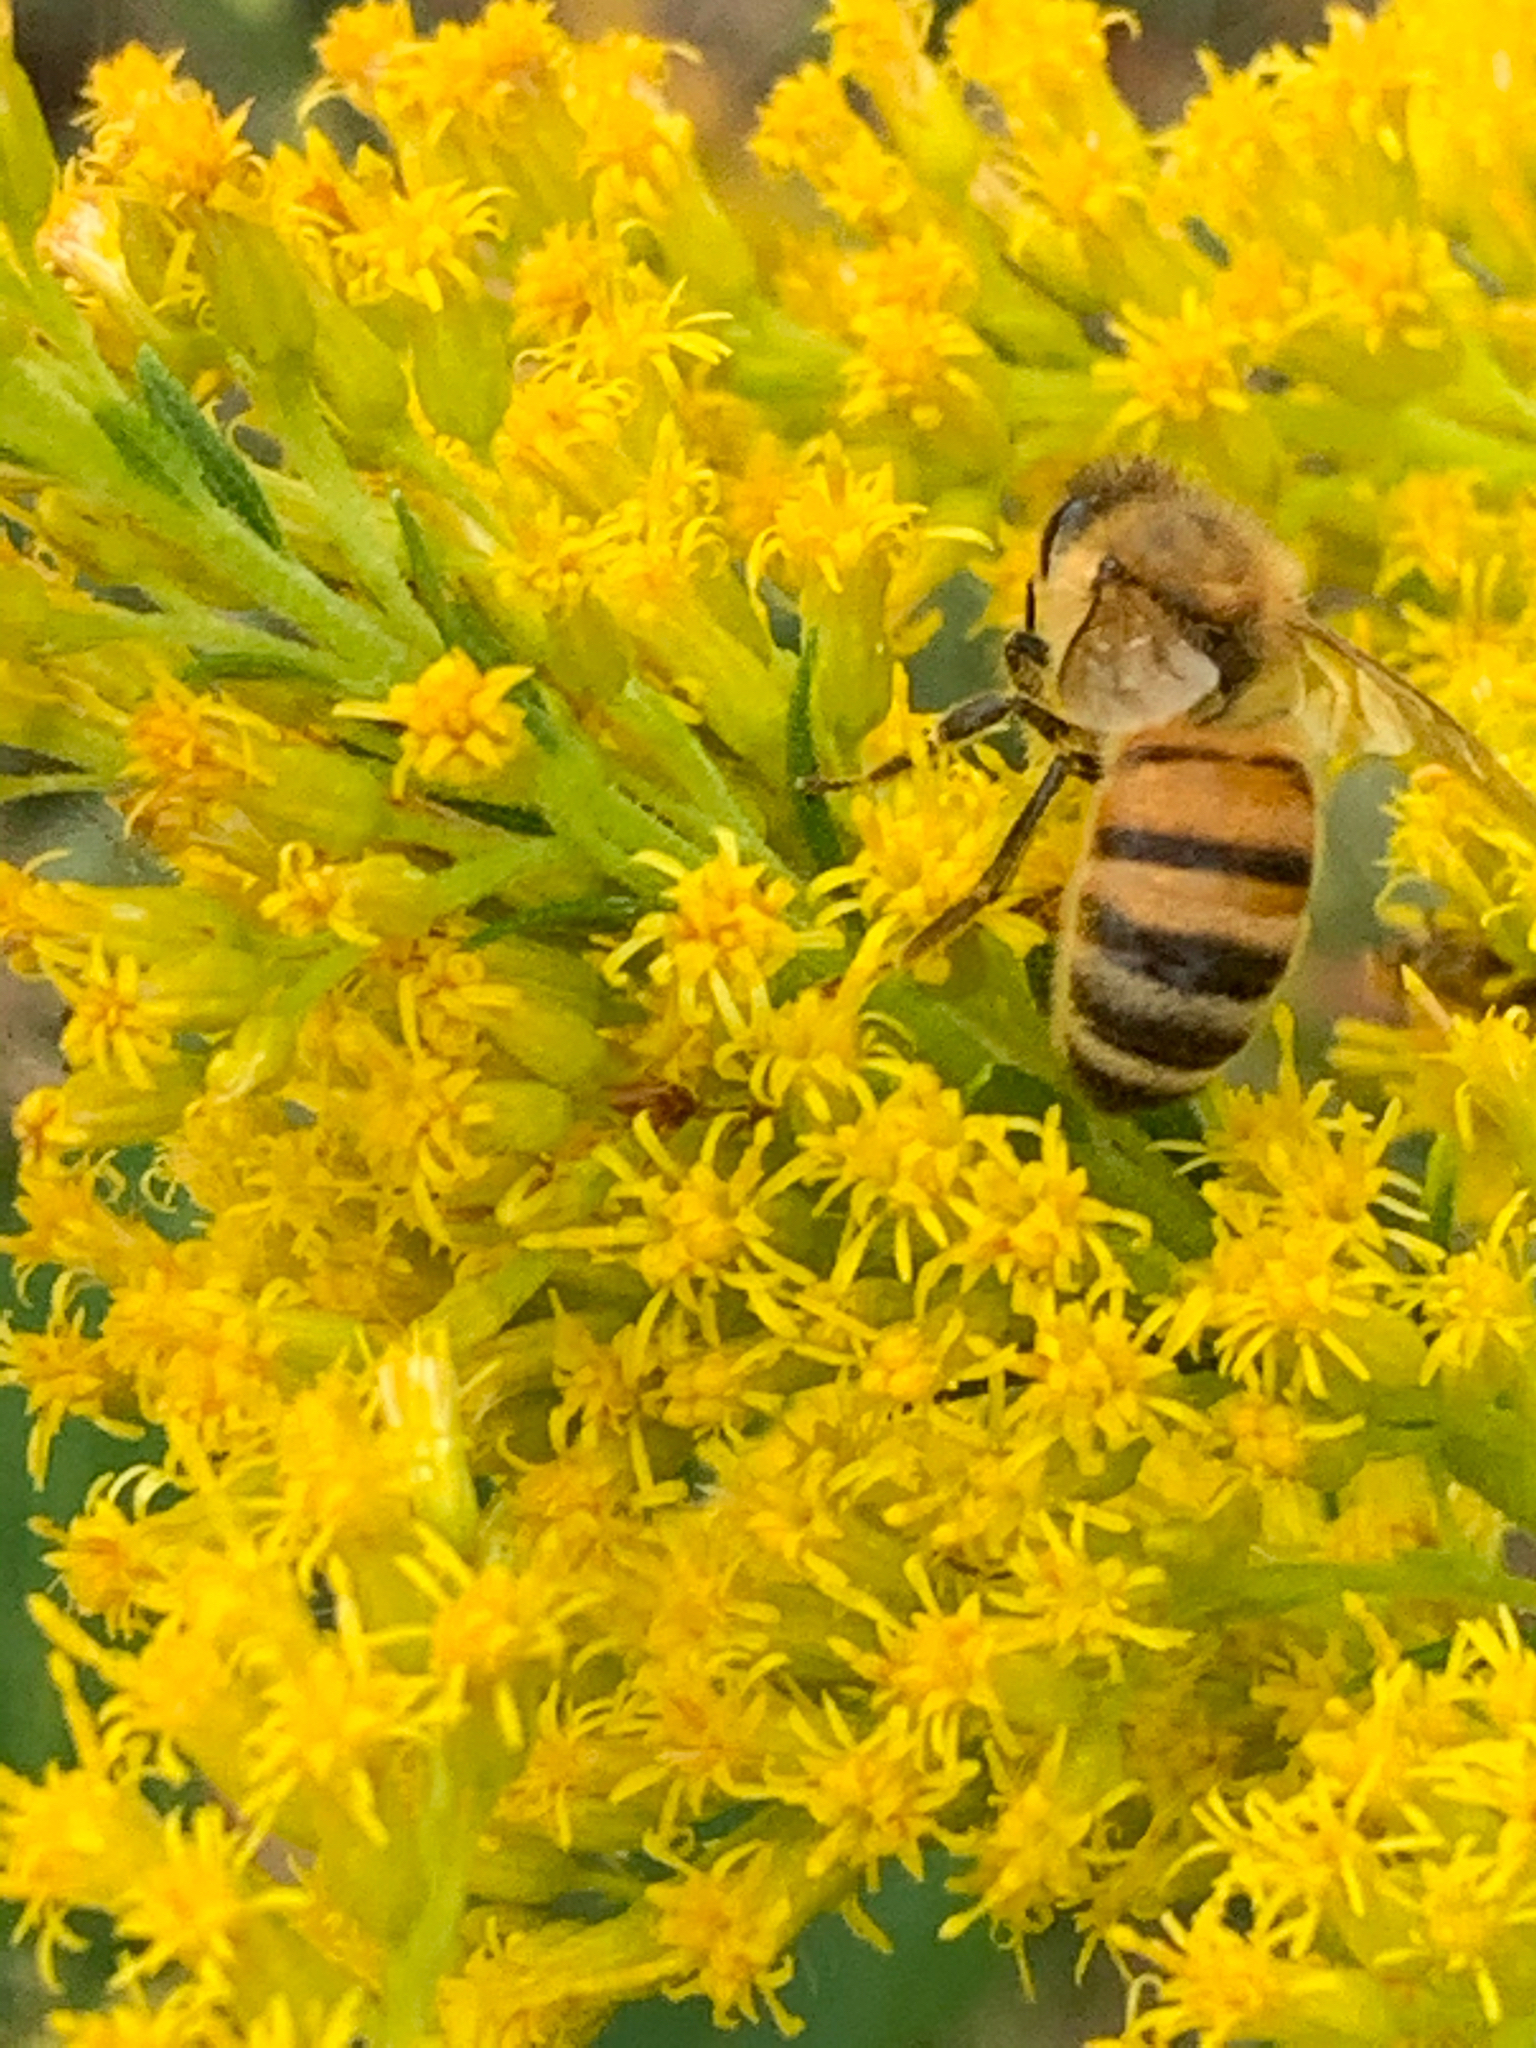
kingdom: Animalia
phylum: Arthropoda
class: Insecta
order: Hymenoptera
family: Apidae
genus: Apis
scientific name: Apis mellifera
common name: Honey bee
